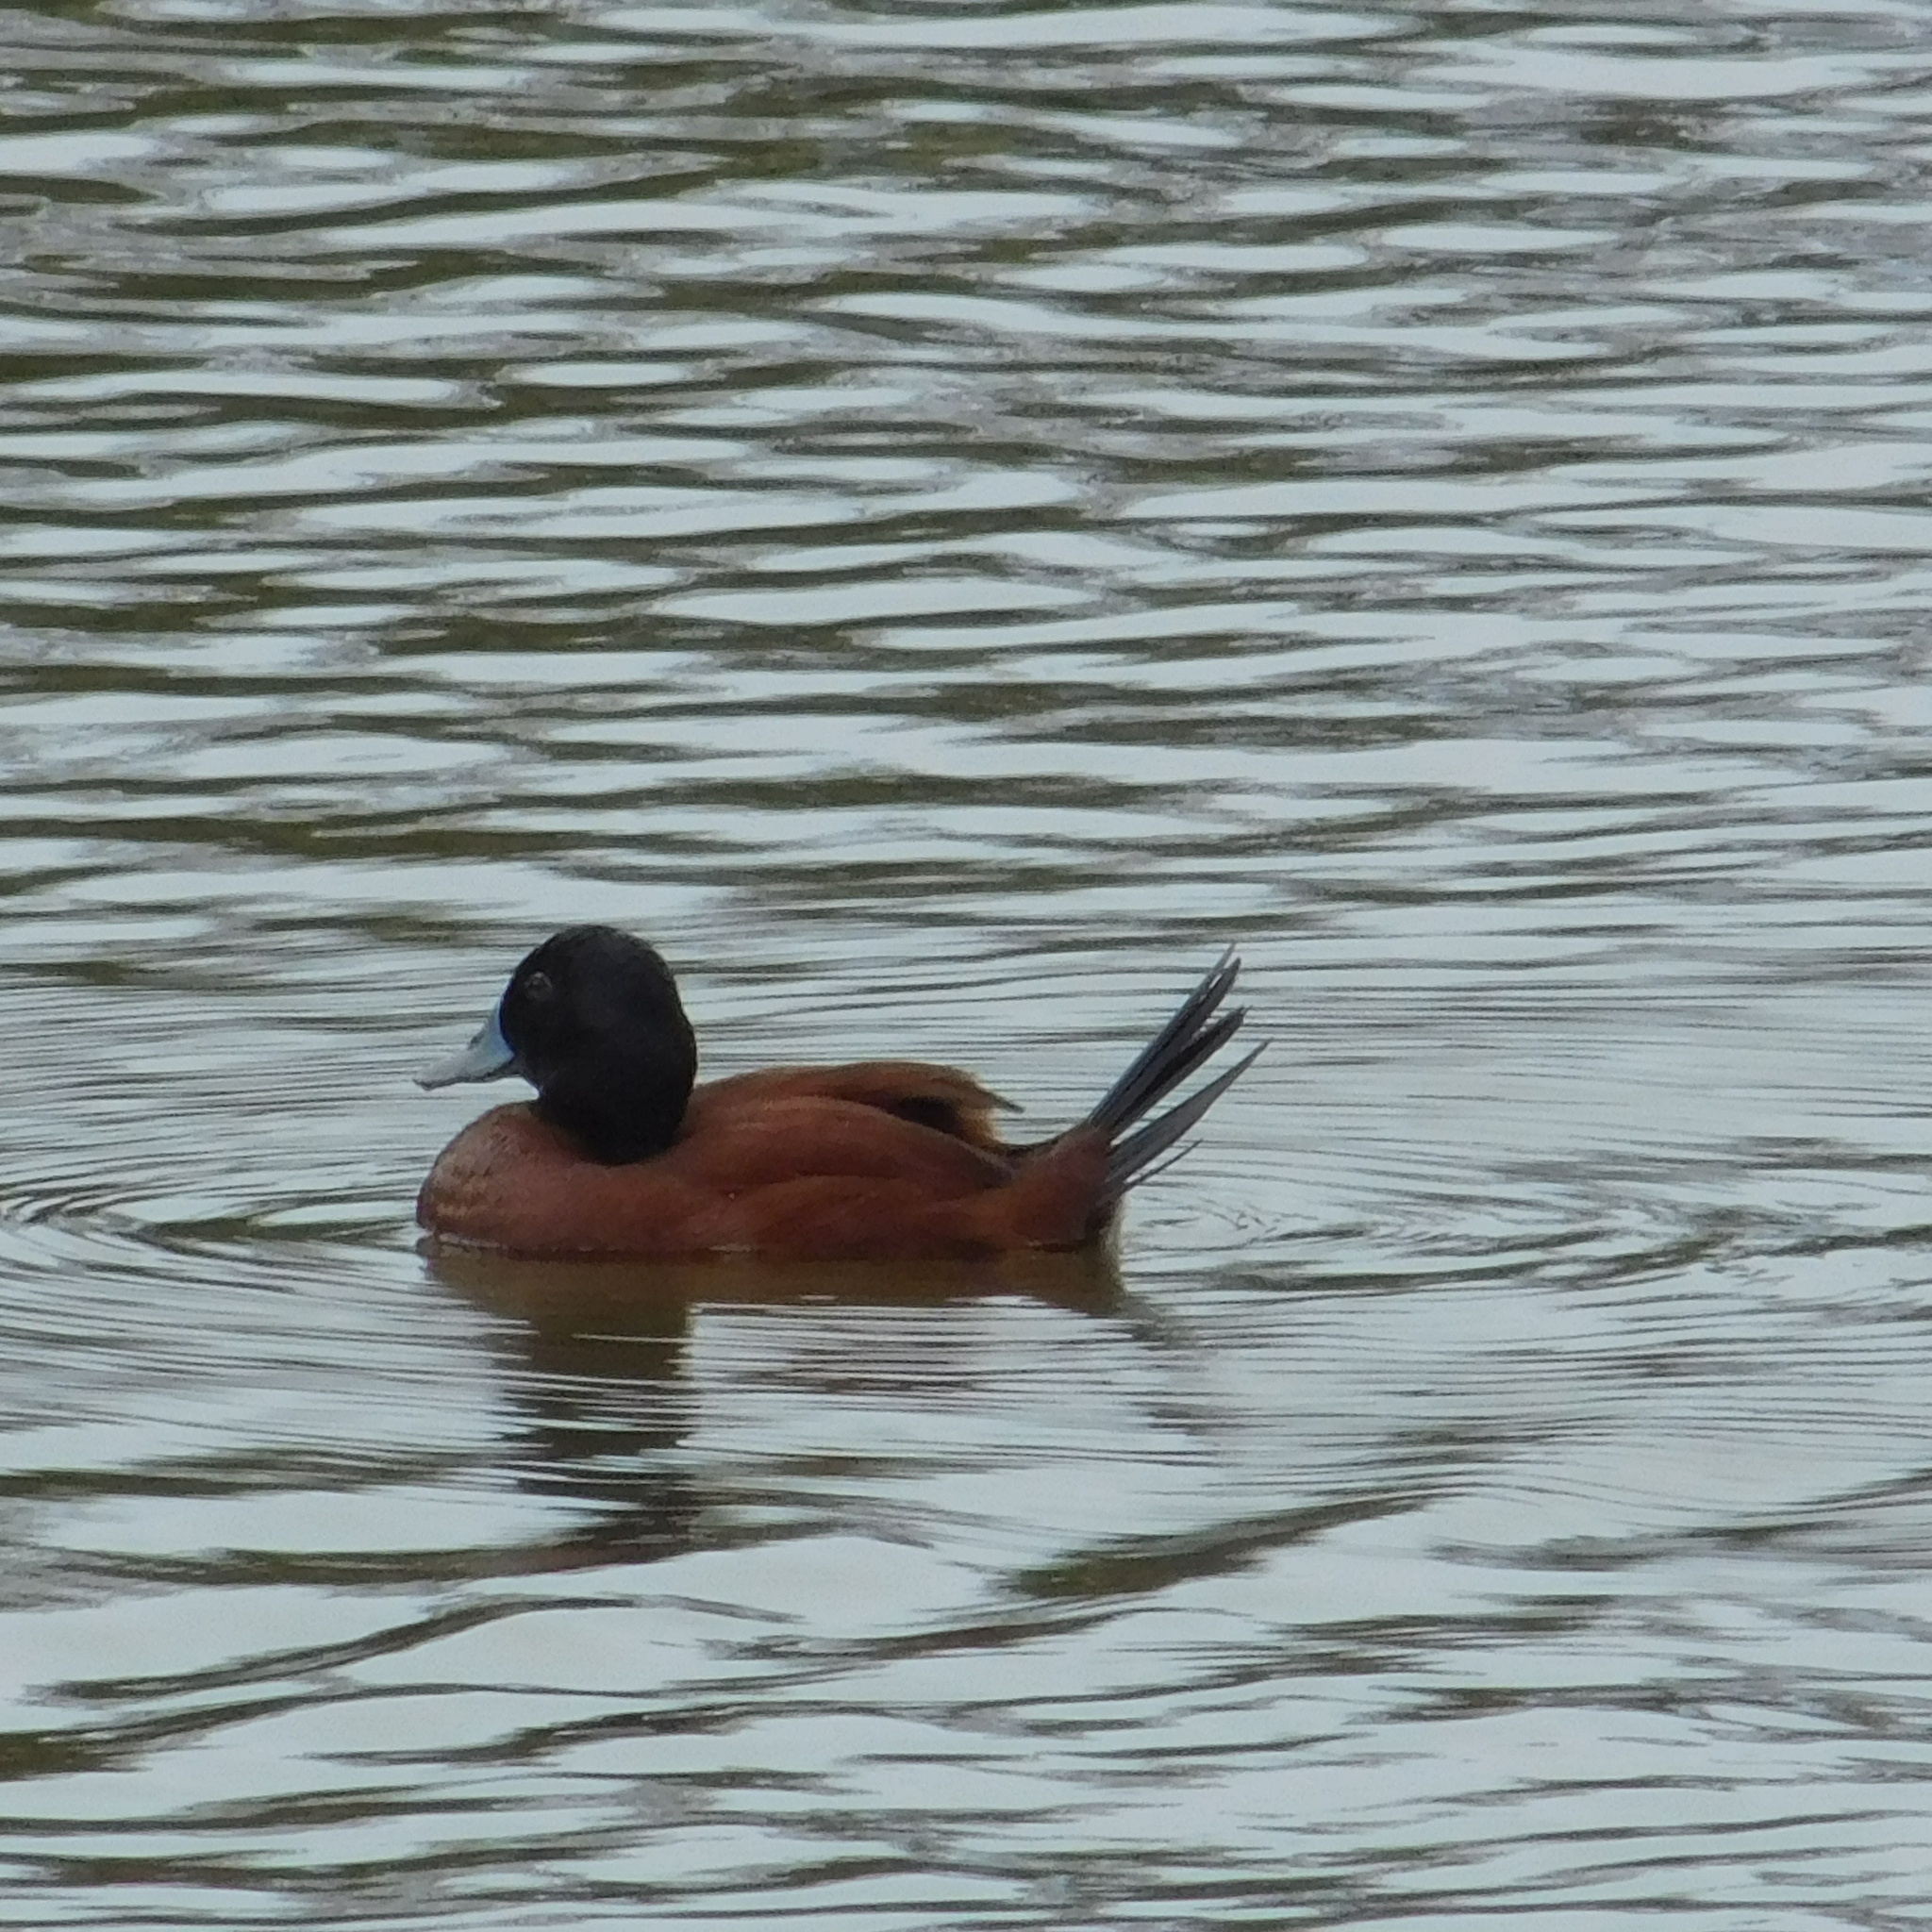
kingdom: Animalia
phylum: Chordata
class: Aves
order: Anseriformes
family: Anatidae
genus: Oxyura
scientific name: Oxyura vittata
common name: Lake duck
